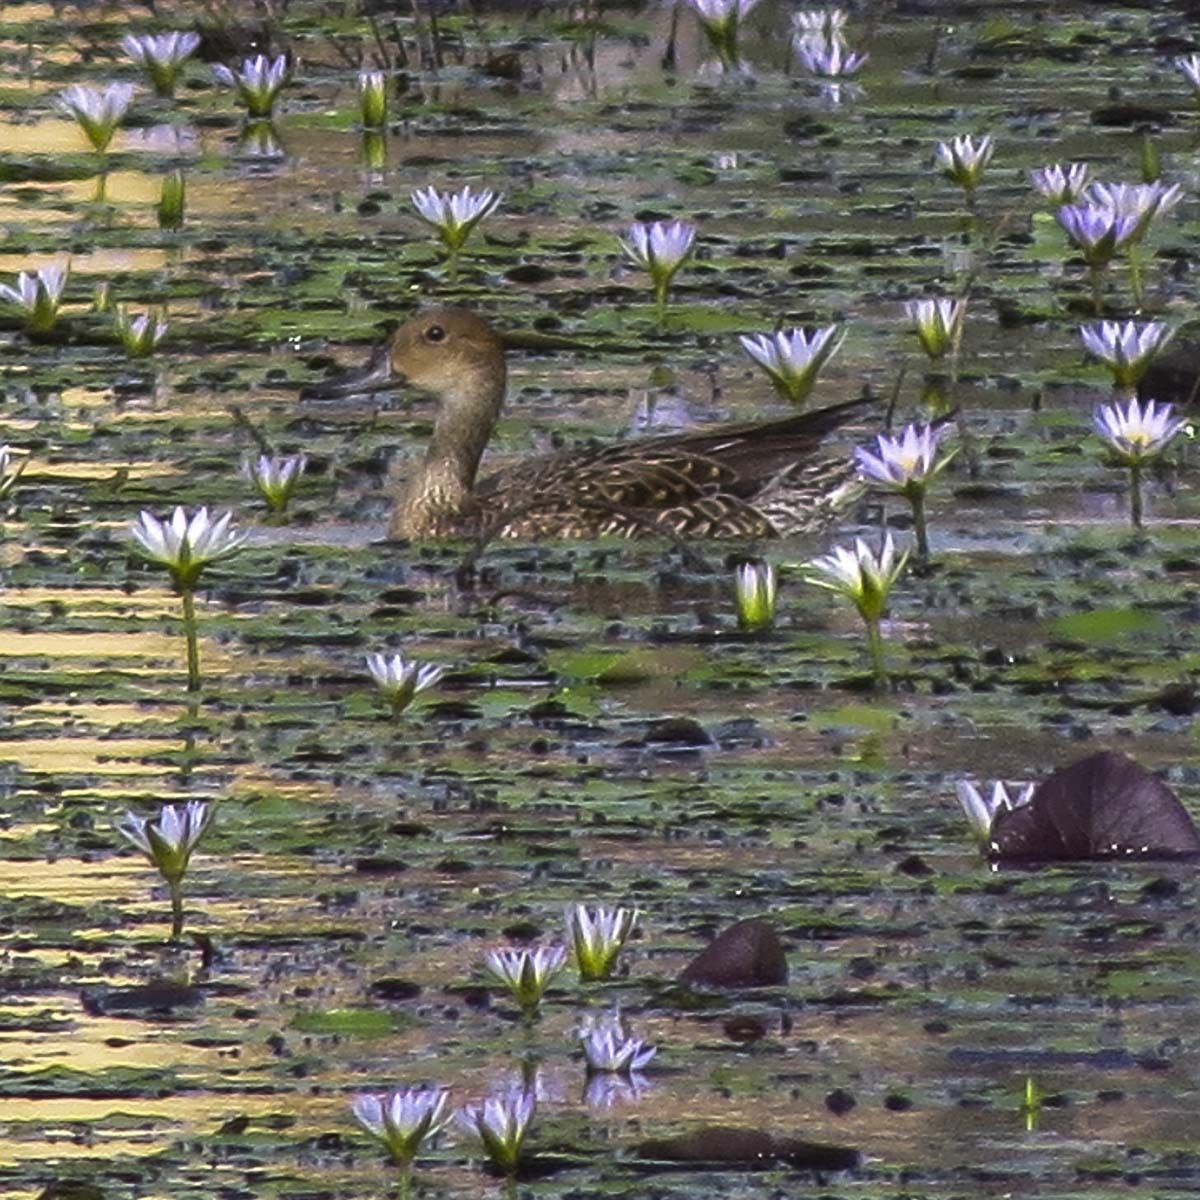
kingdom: Animalia
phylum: Chordata
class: Aves
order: Anseriformes
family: Anatidae
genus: Anas
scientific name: Anas acuta
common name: Northern pintail
